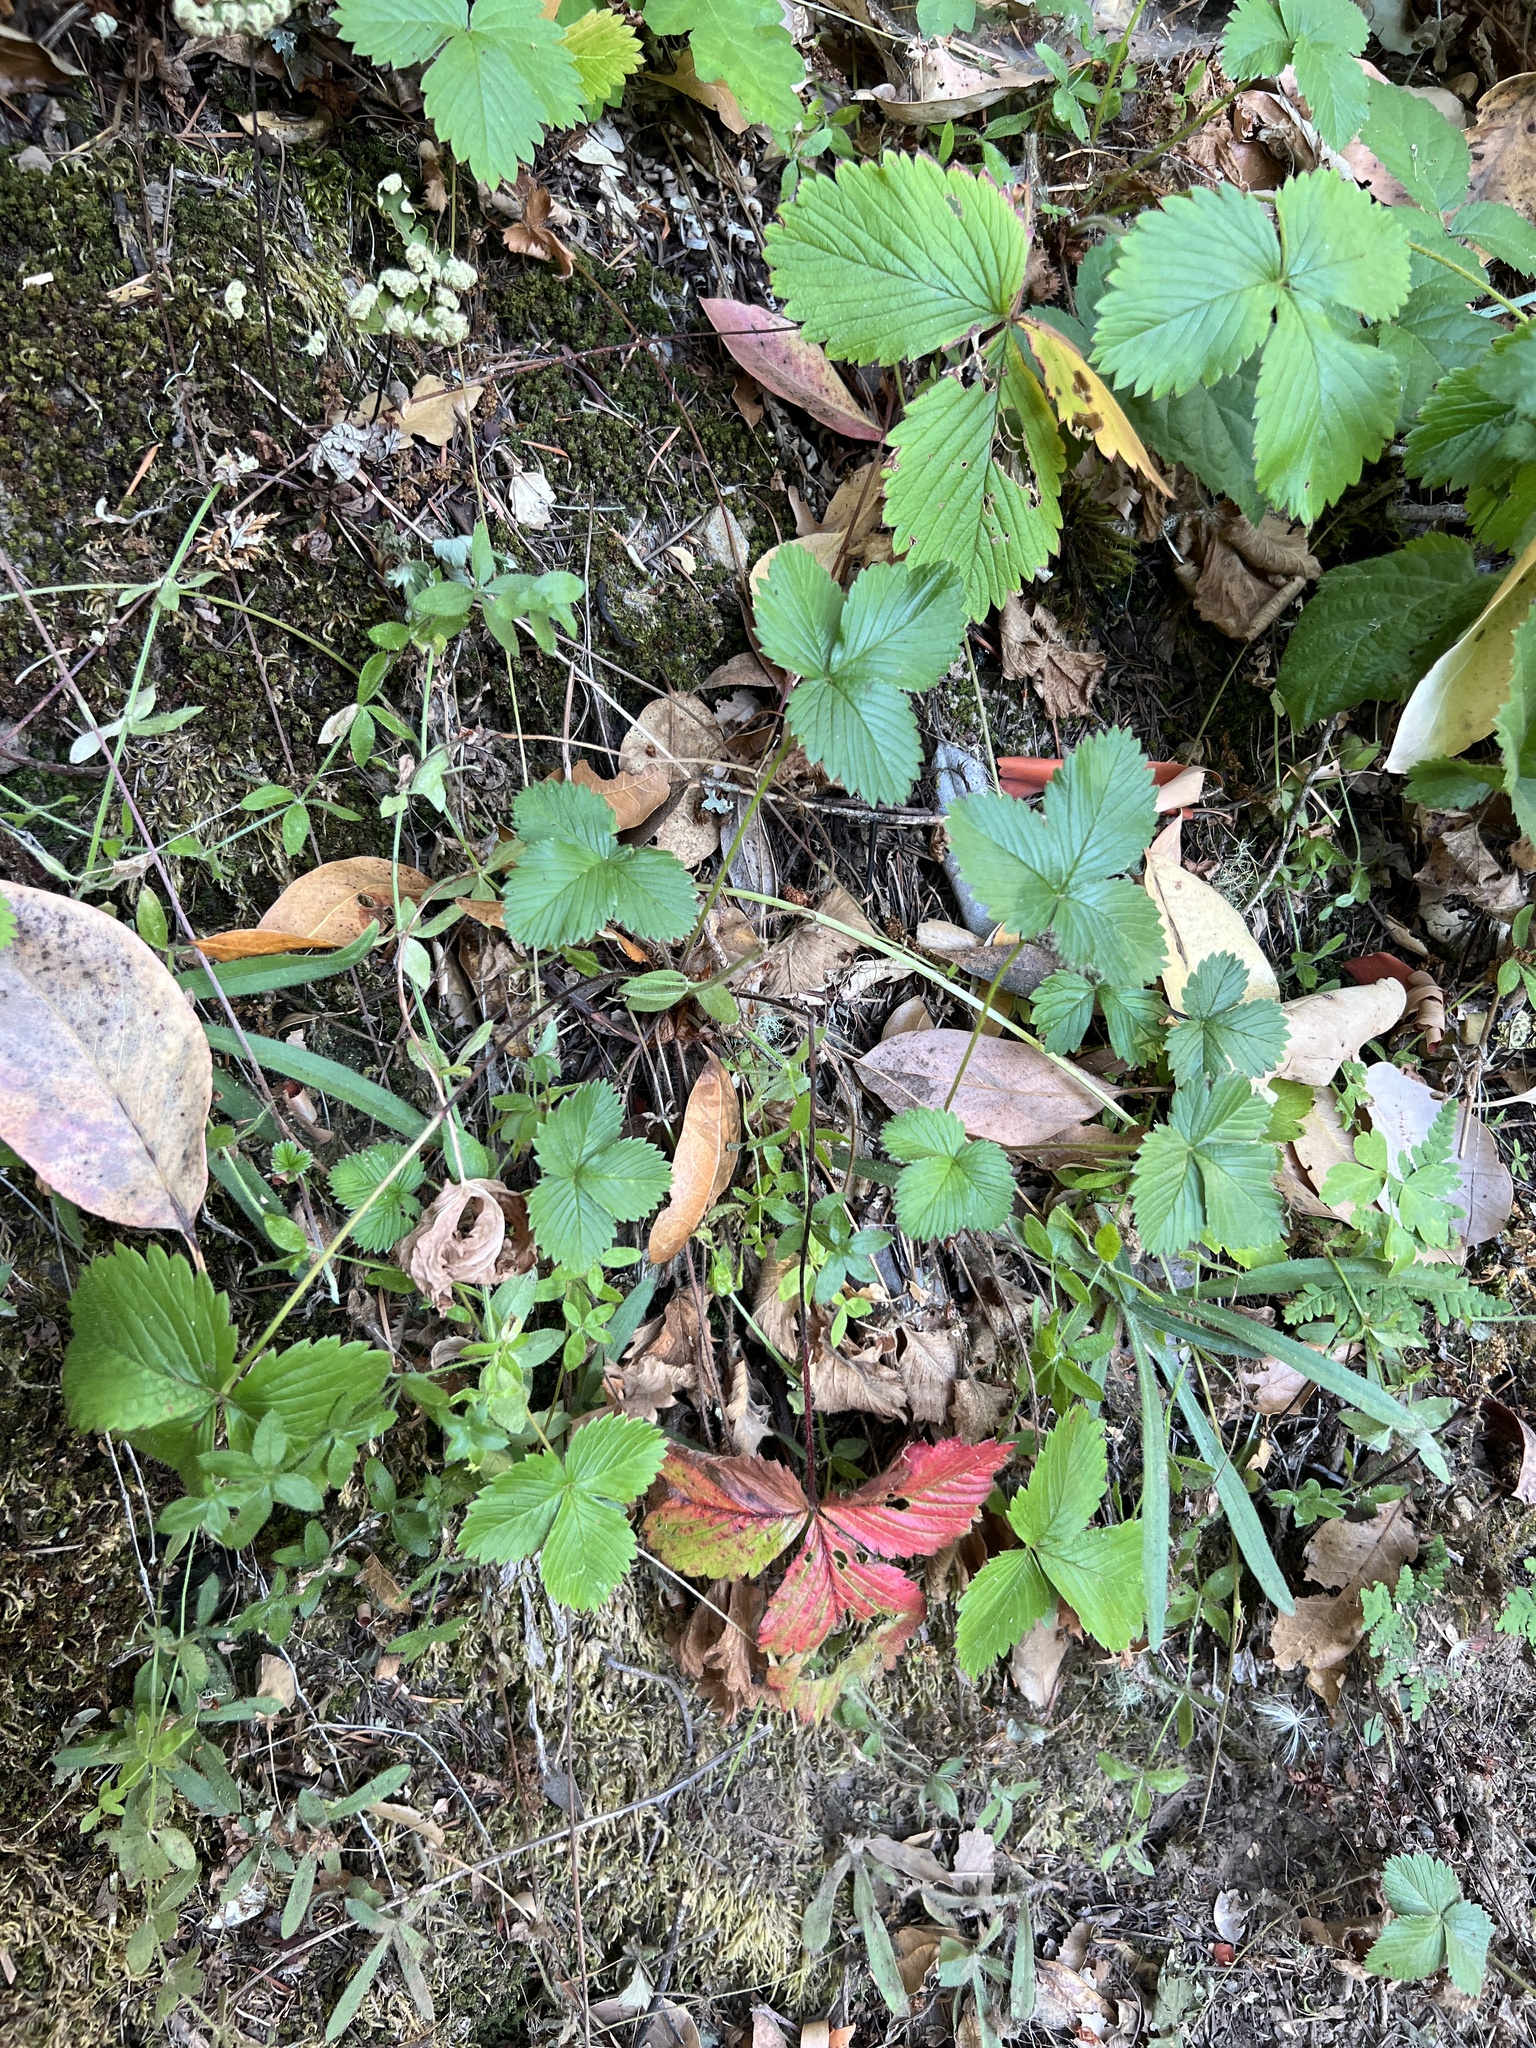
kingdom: Plantae
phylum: Tracheophyta
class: Magnoliopsida
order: Rosales
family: Rosaceae
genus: Fragaria
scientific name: Fragaria vesca
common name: Wild strawberry
